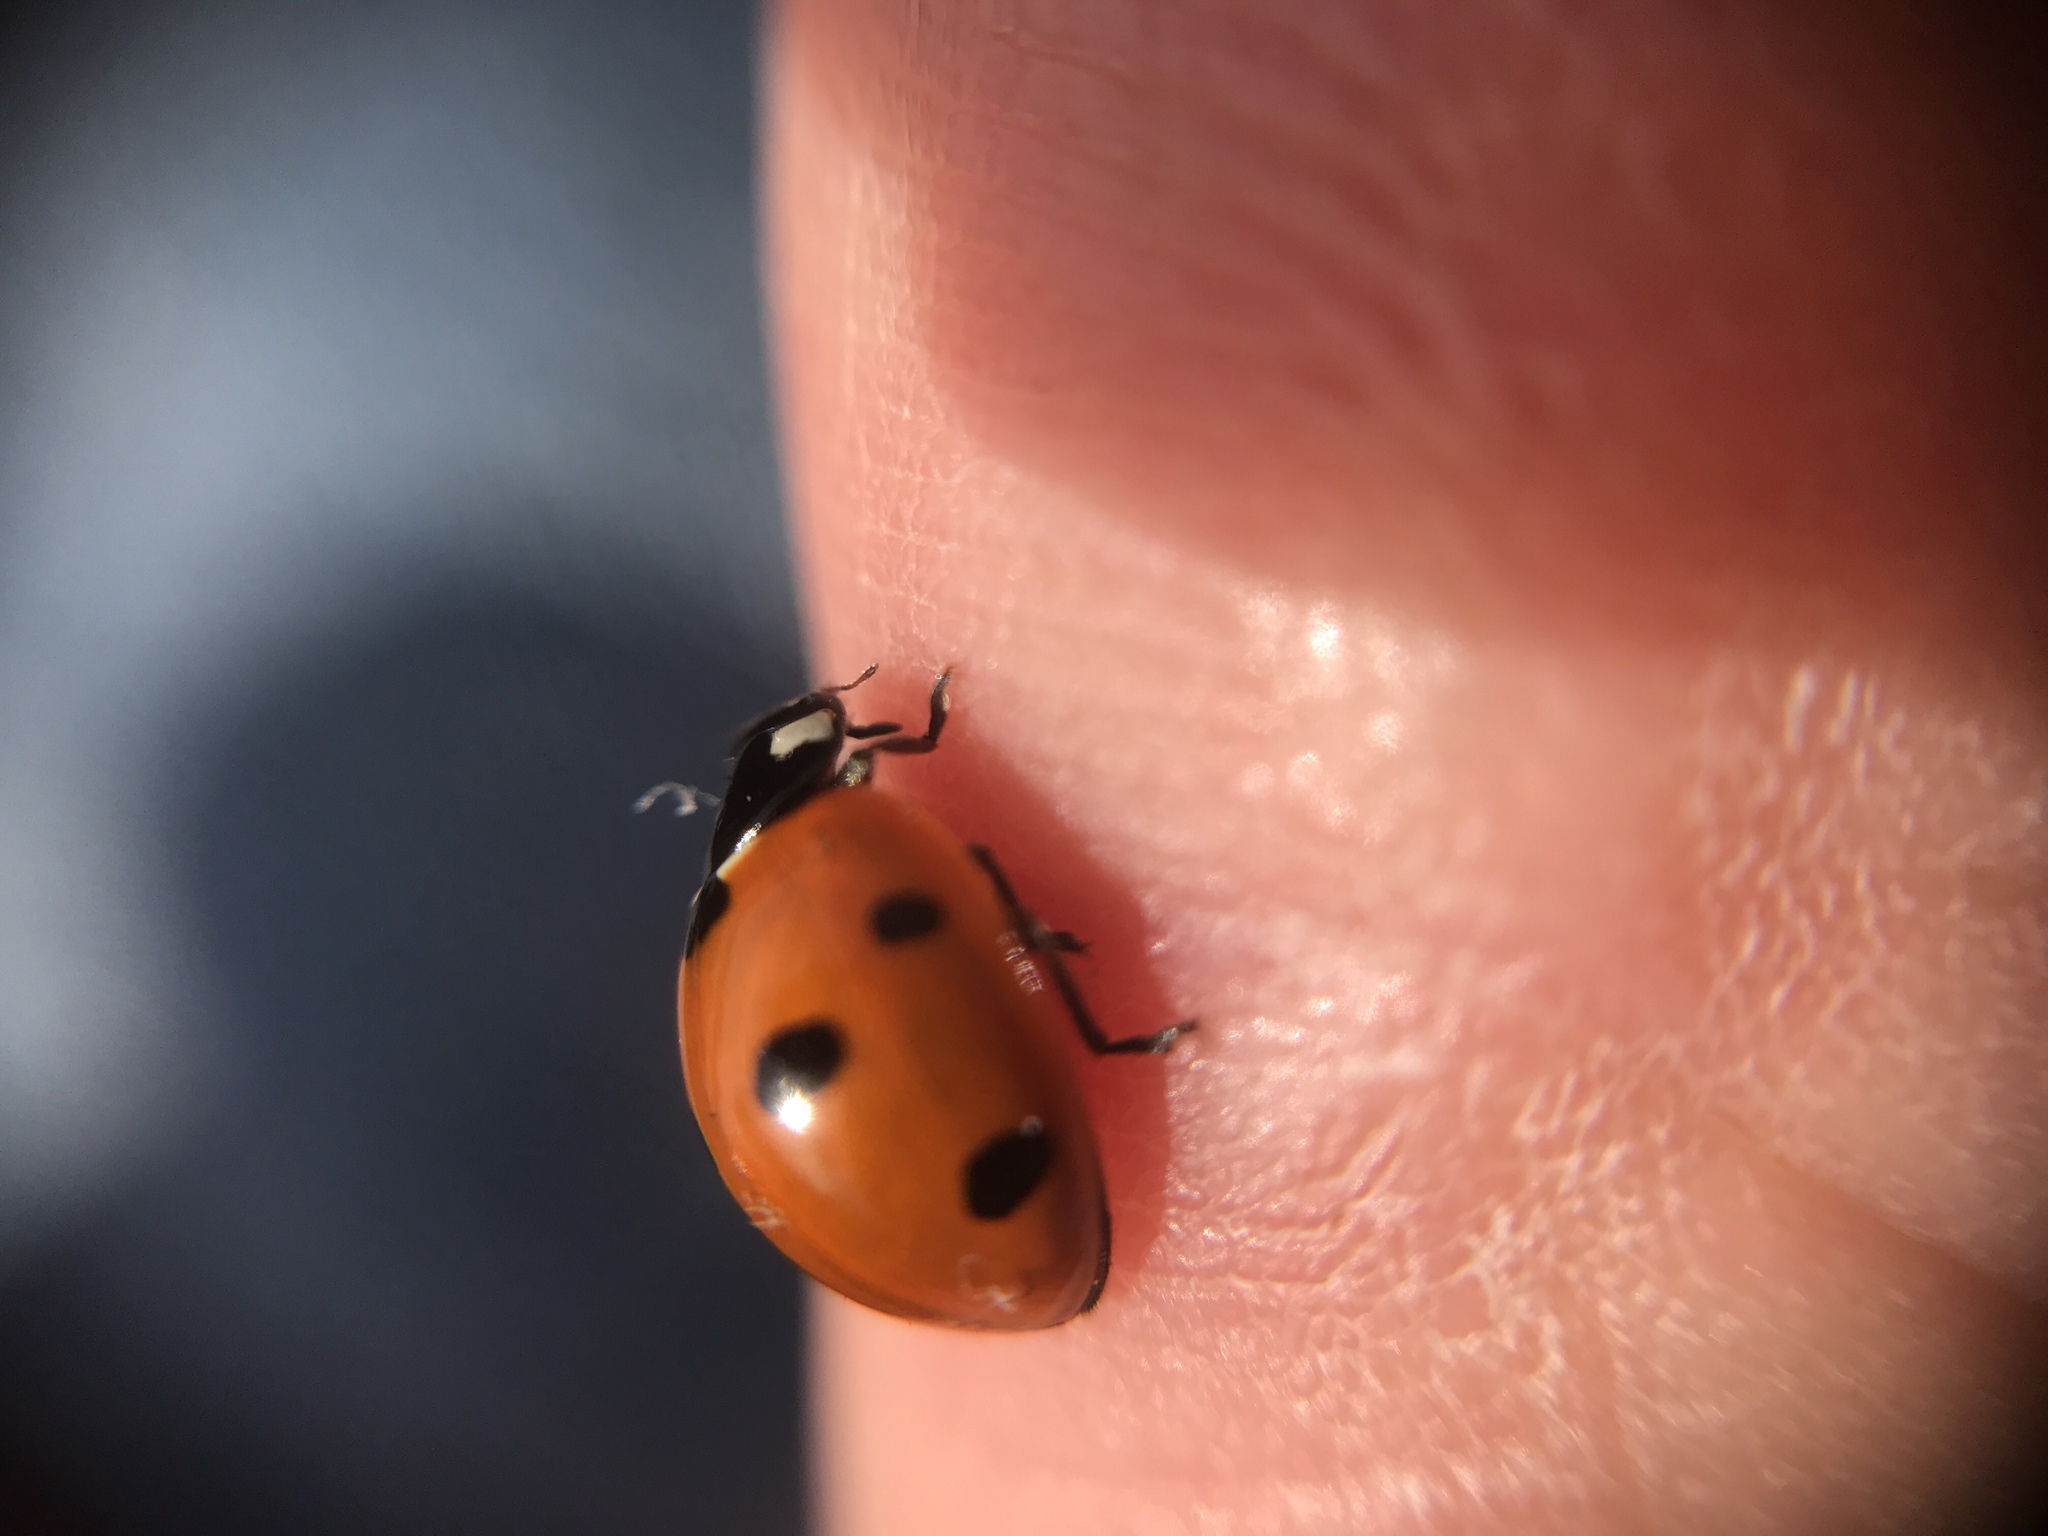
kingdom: Animalia
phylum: Arthropoda
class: Insecta
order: Coleoptera
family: Coccinellidae
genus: Coccinella
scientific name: Coccinella septempunctata
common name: Sevenspotted lady beetle
